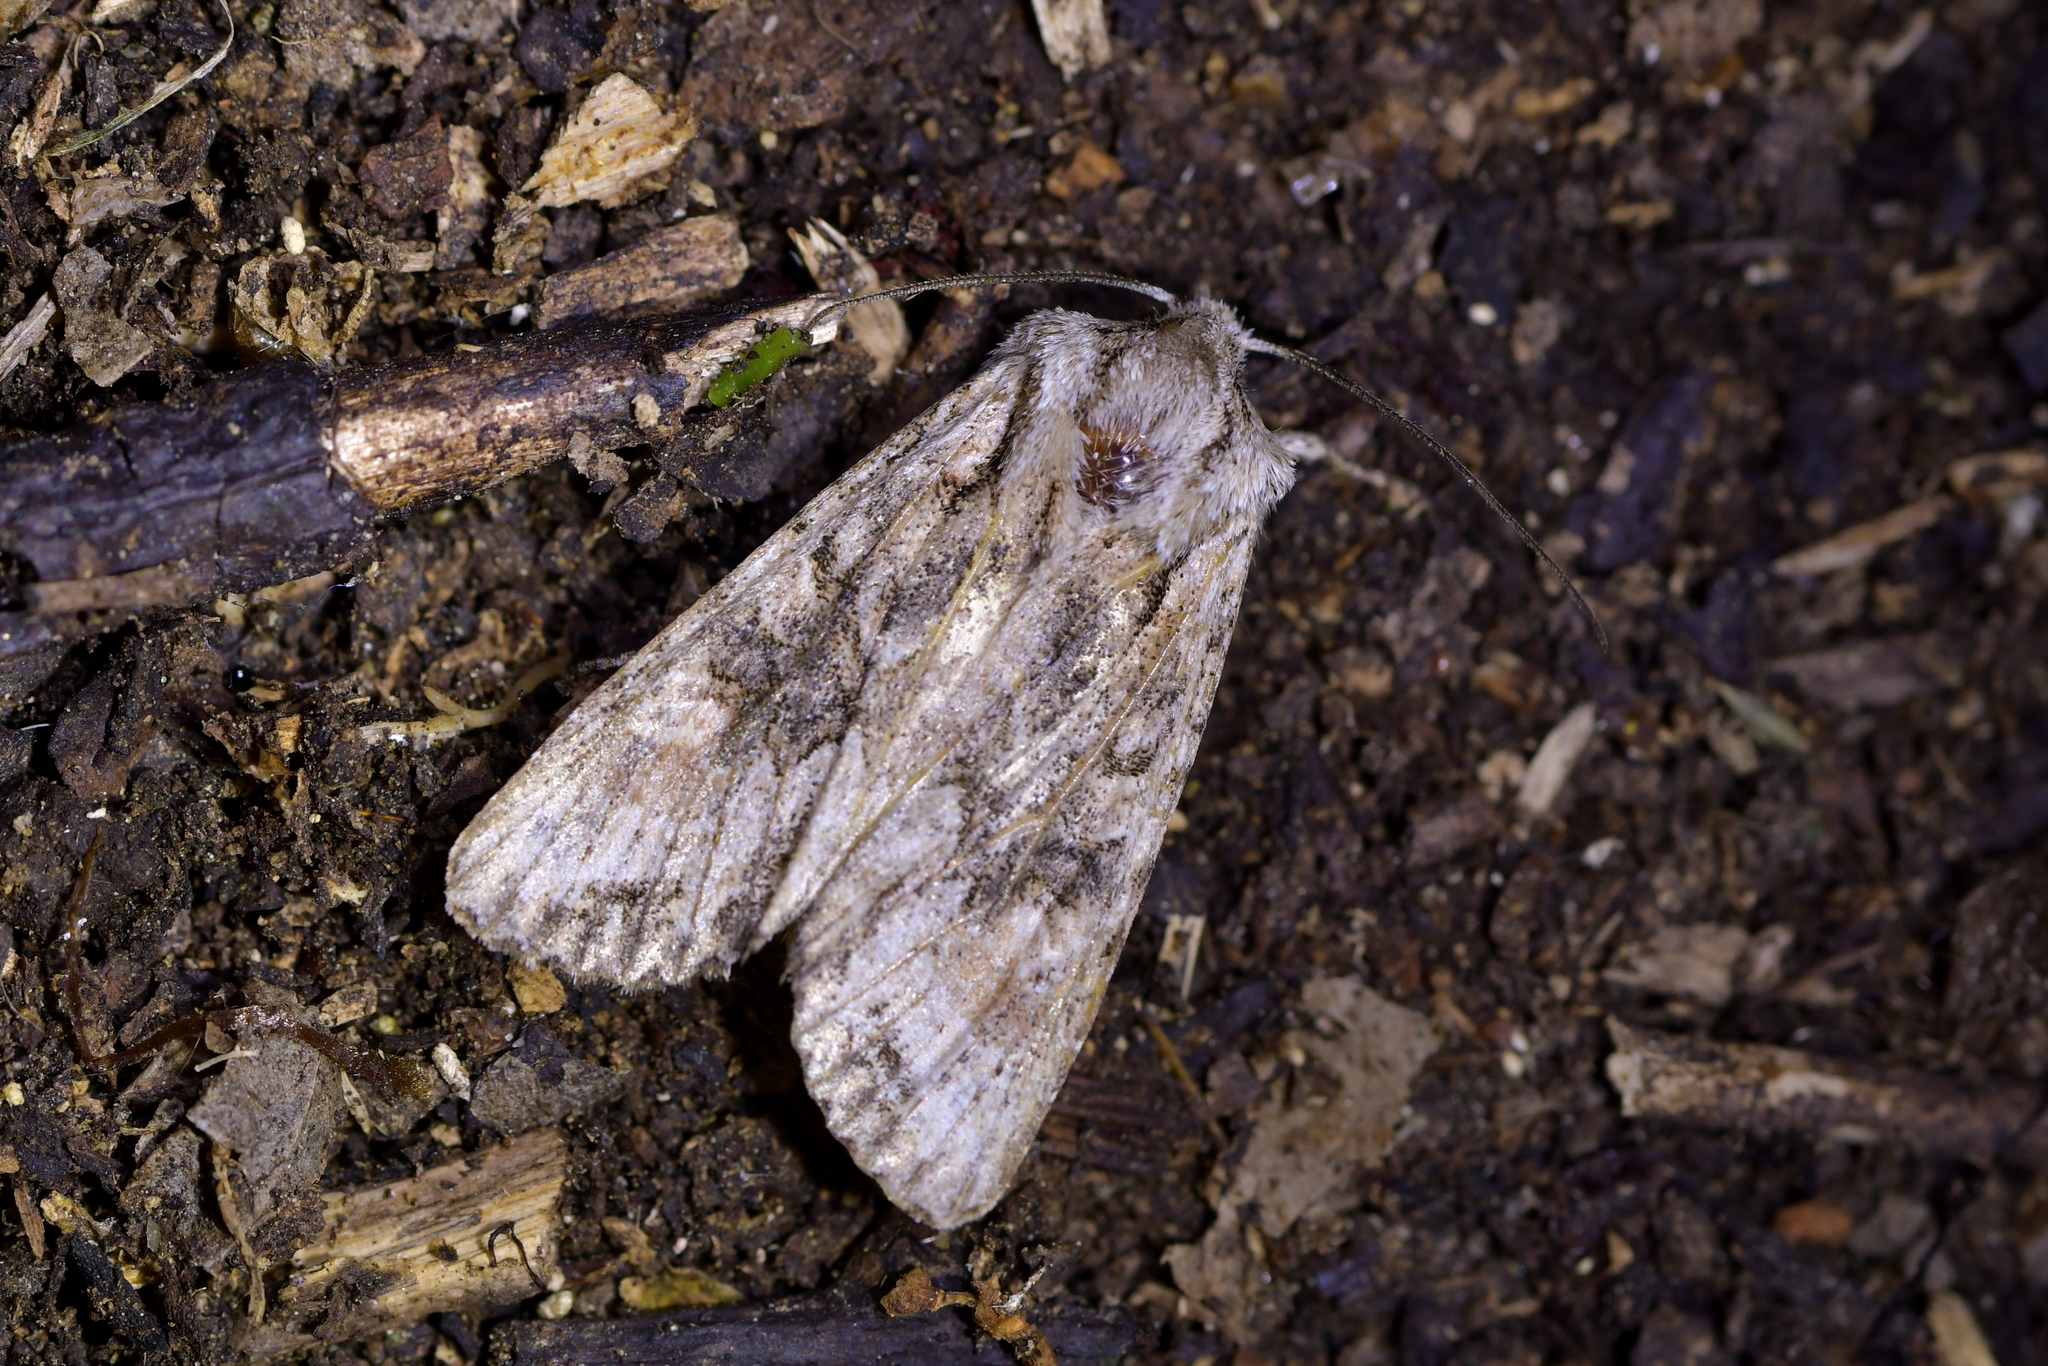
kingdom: Animalia
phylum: Arthropoda
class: Insecta
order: Lepidoptera
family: Noctuidae
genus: Ichneutica
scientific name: Ichneutica mutans
